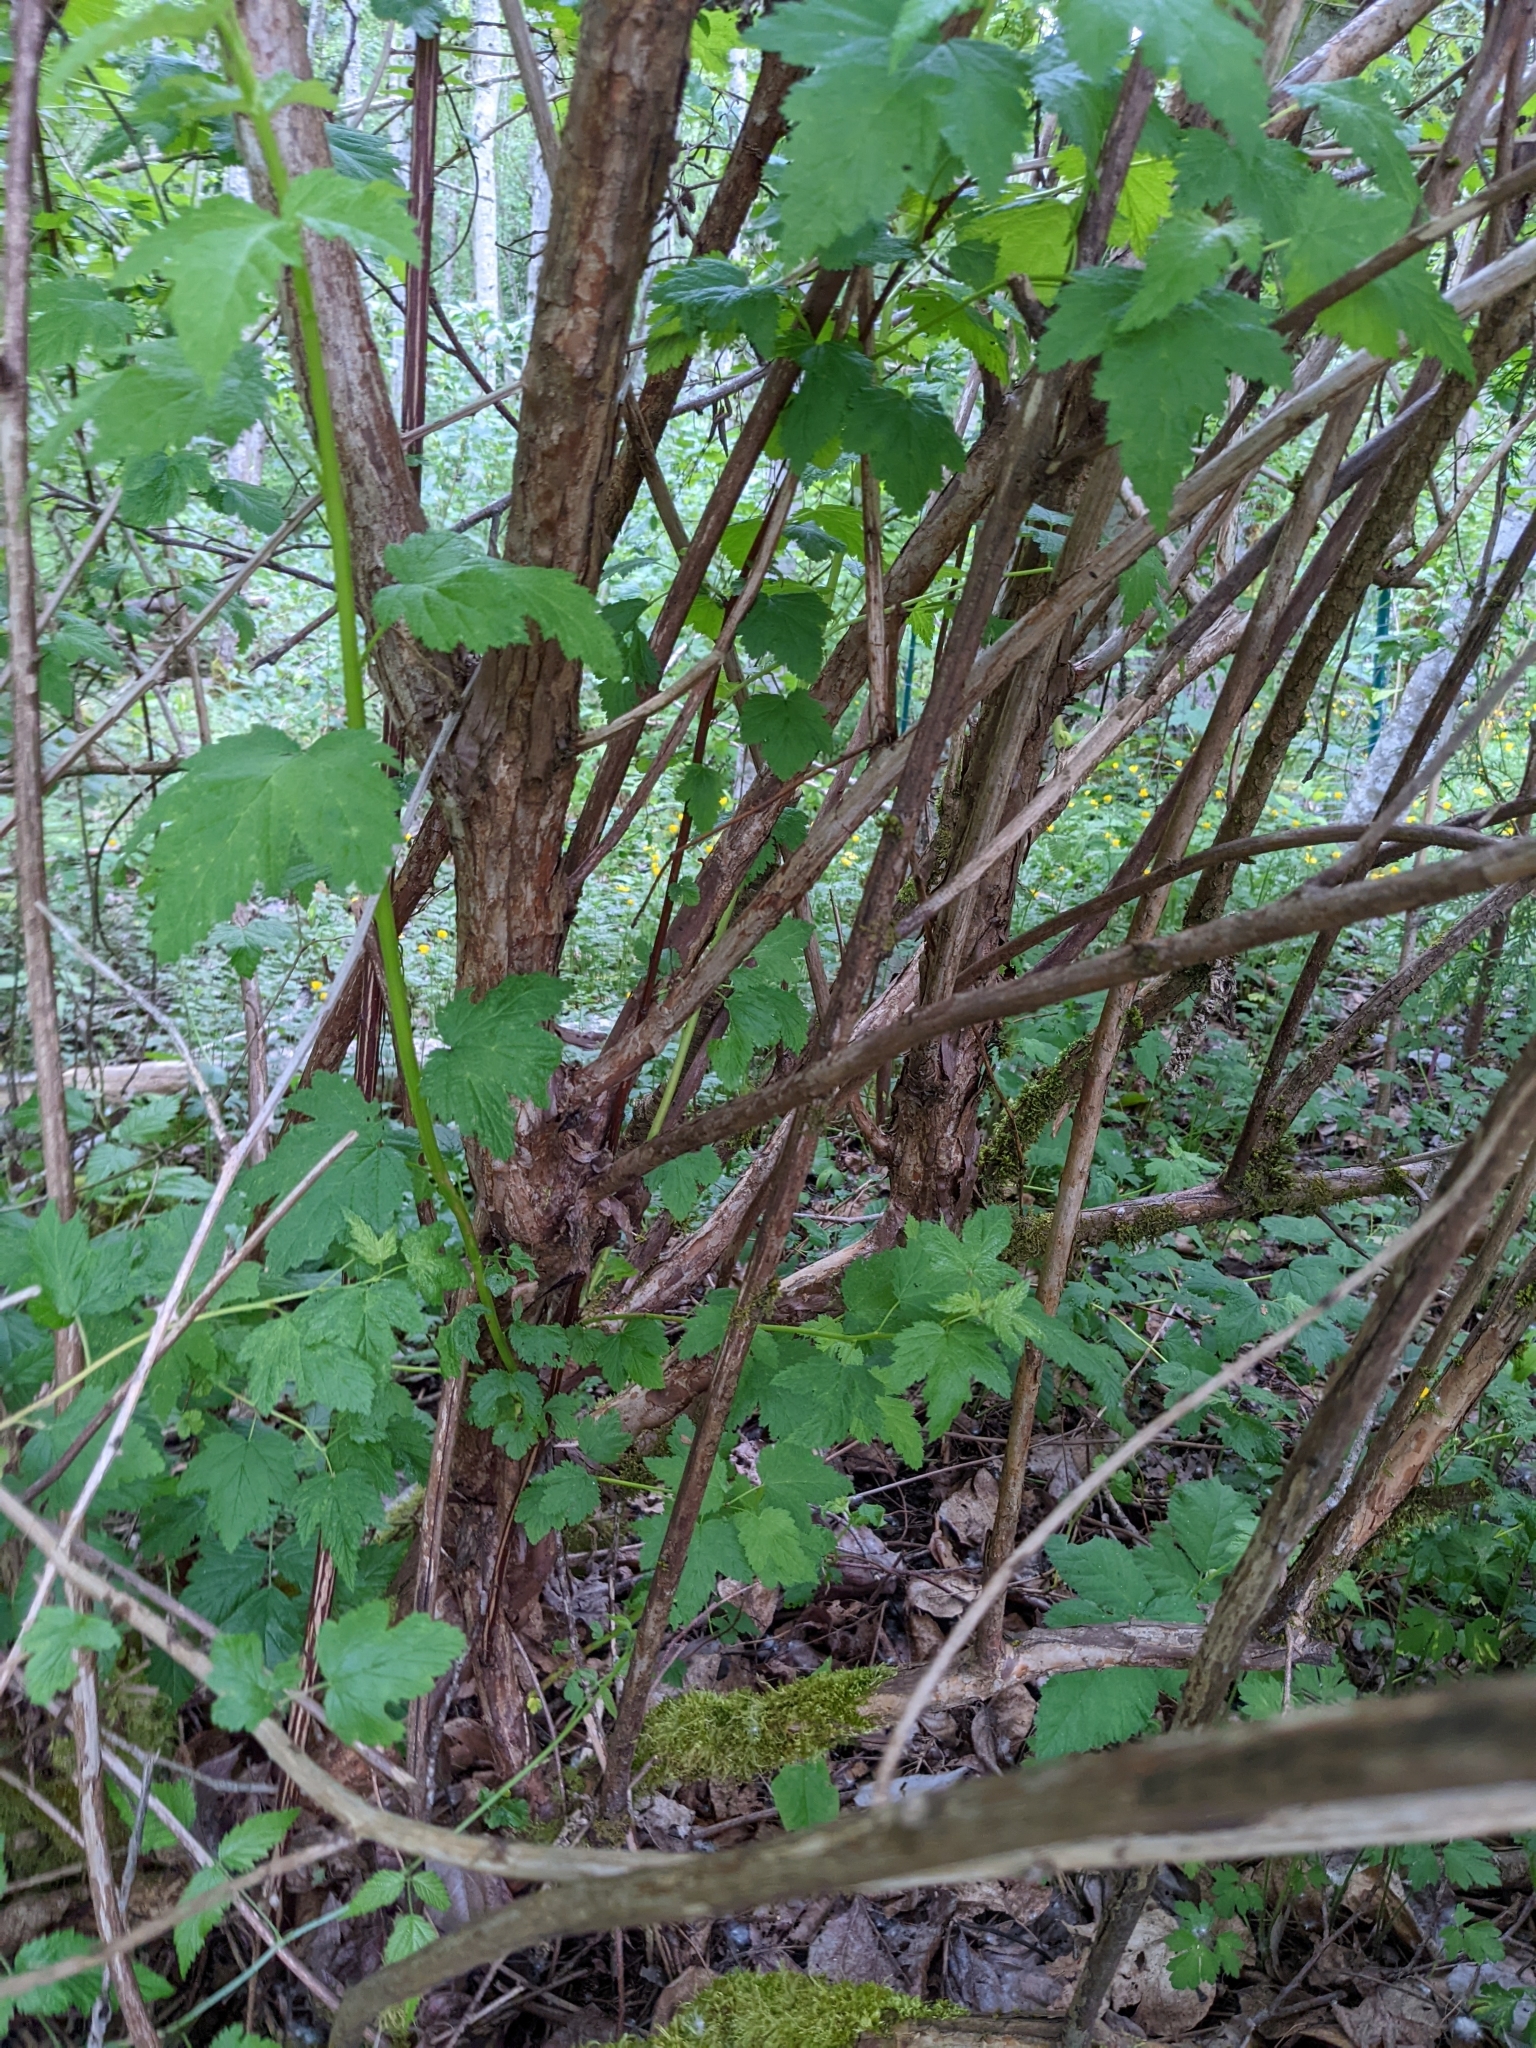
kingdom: Plantae
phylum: Tracheophyta
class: Magnoliopsida
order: Rosales
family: Rosaceae
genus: Physocarpus
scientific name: Physocarpus capitatus
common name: Pacific ninebark
